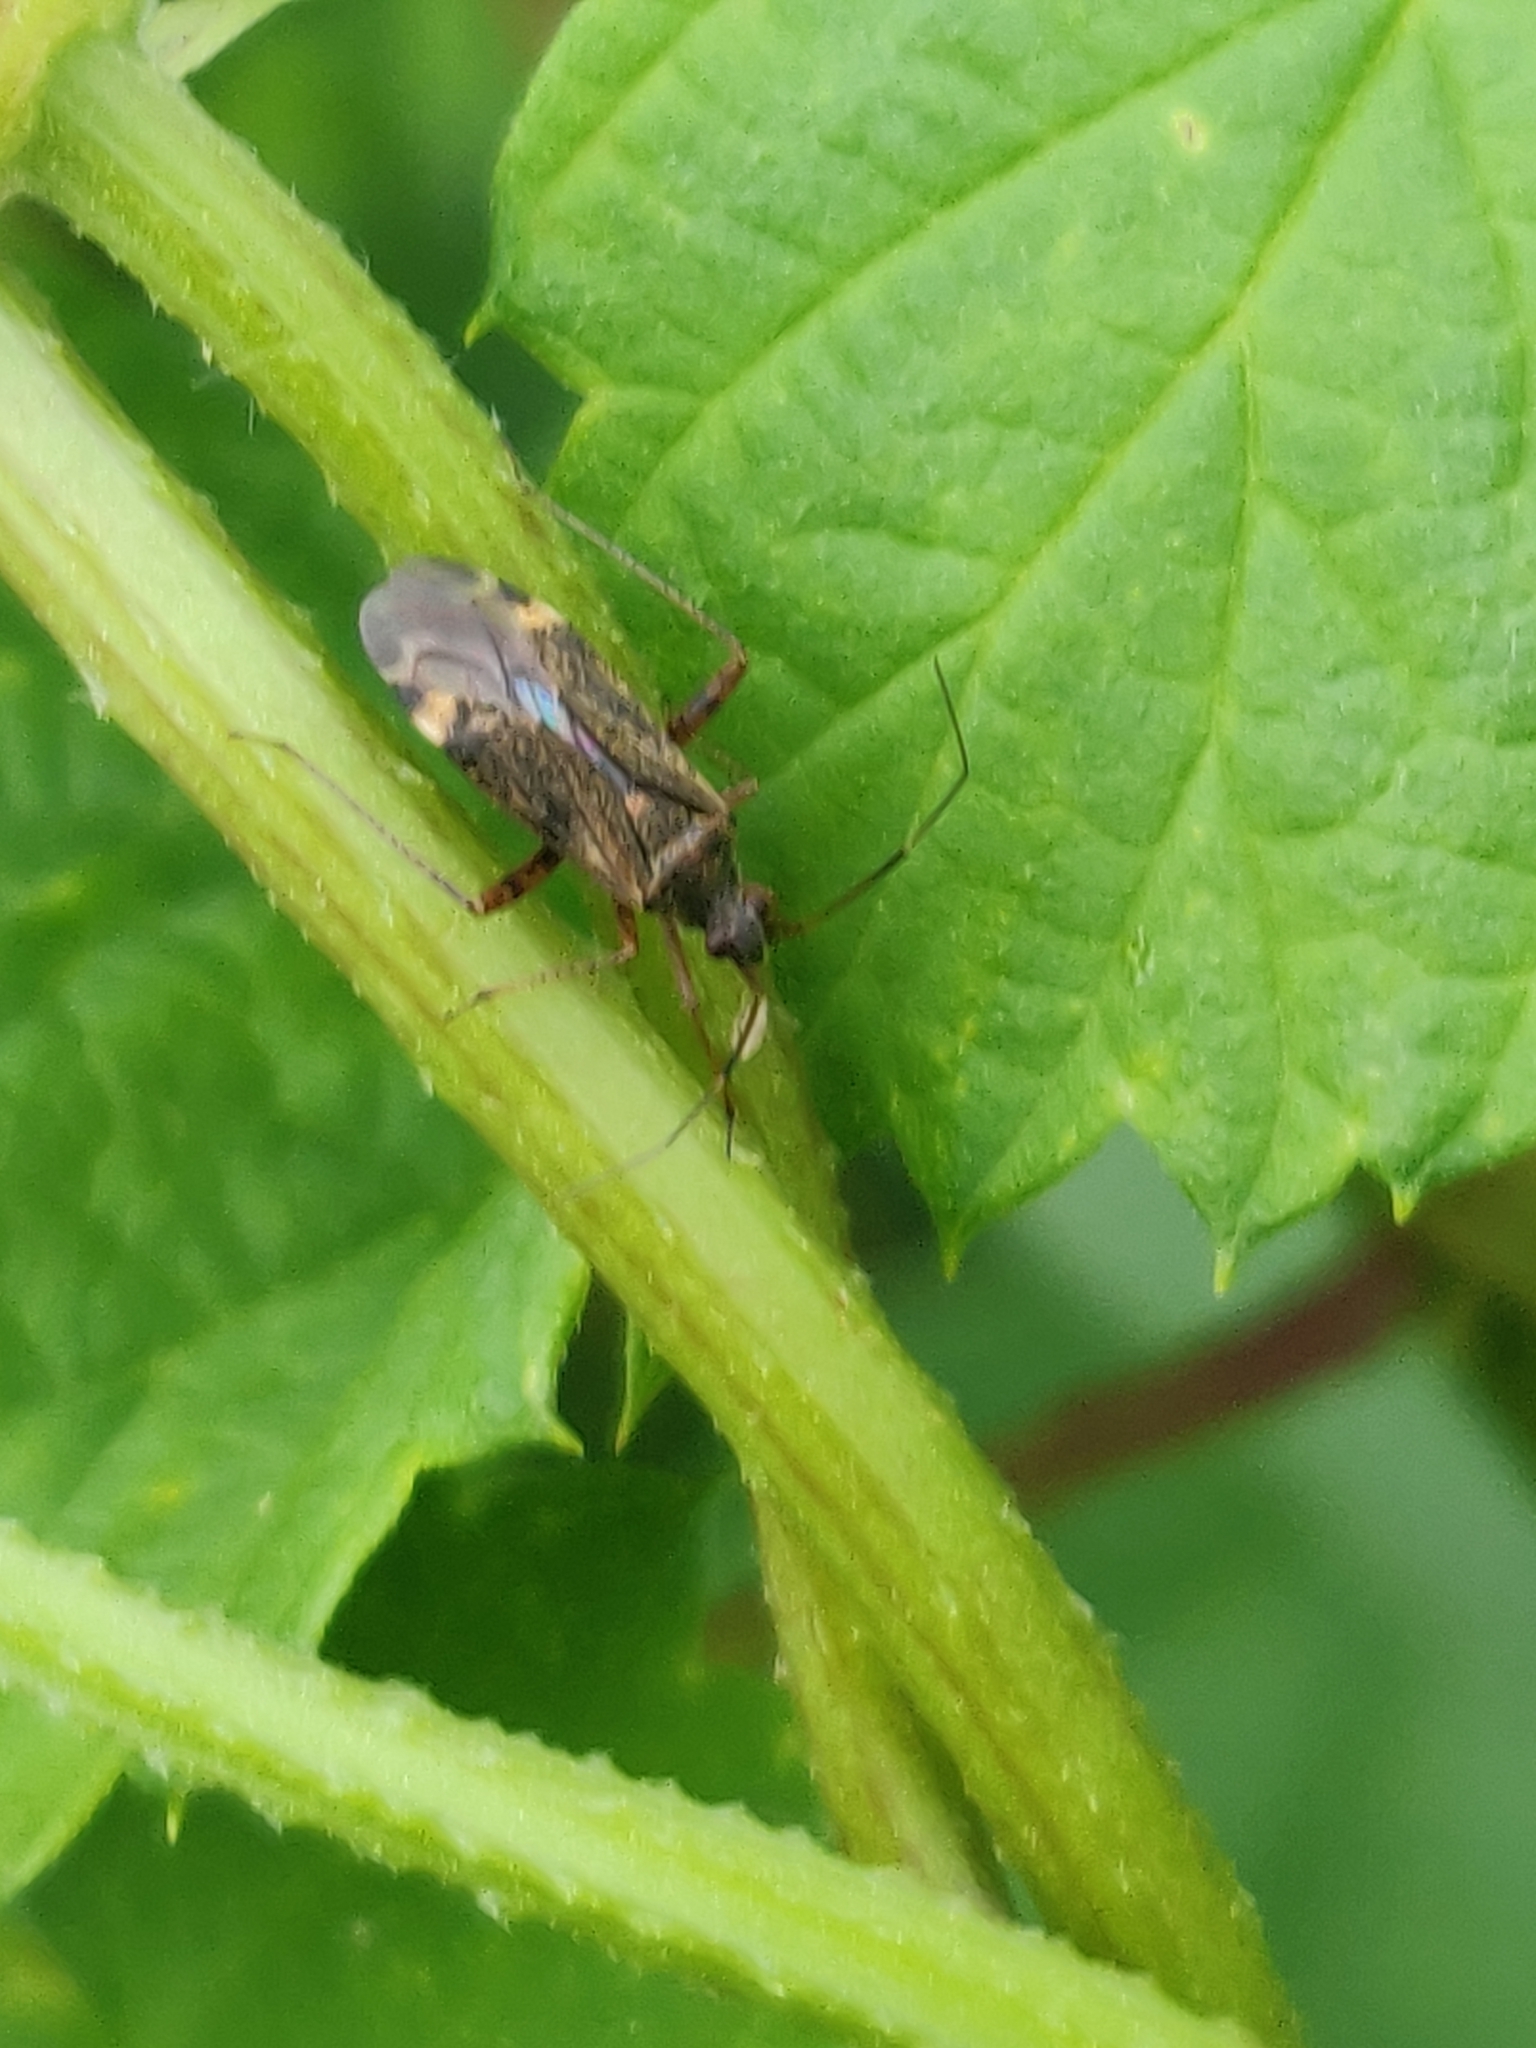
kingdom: Animalia
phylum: Arthropoda
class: Insecta
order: Hemiptera
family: Miridae
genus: Closterotomus
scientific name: Closterotomus fulvomaculatus
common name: Spotted plant bug
